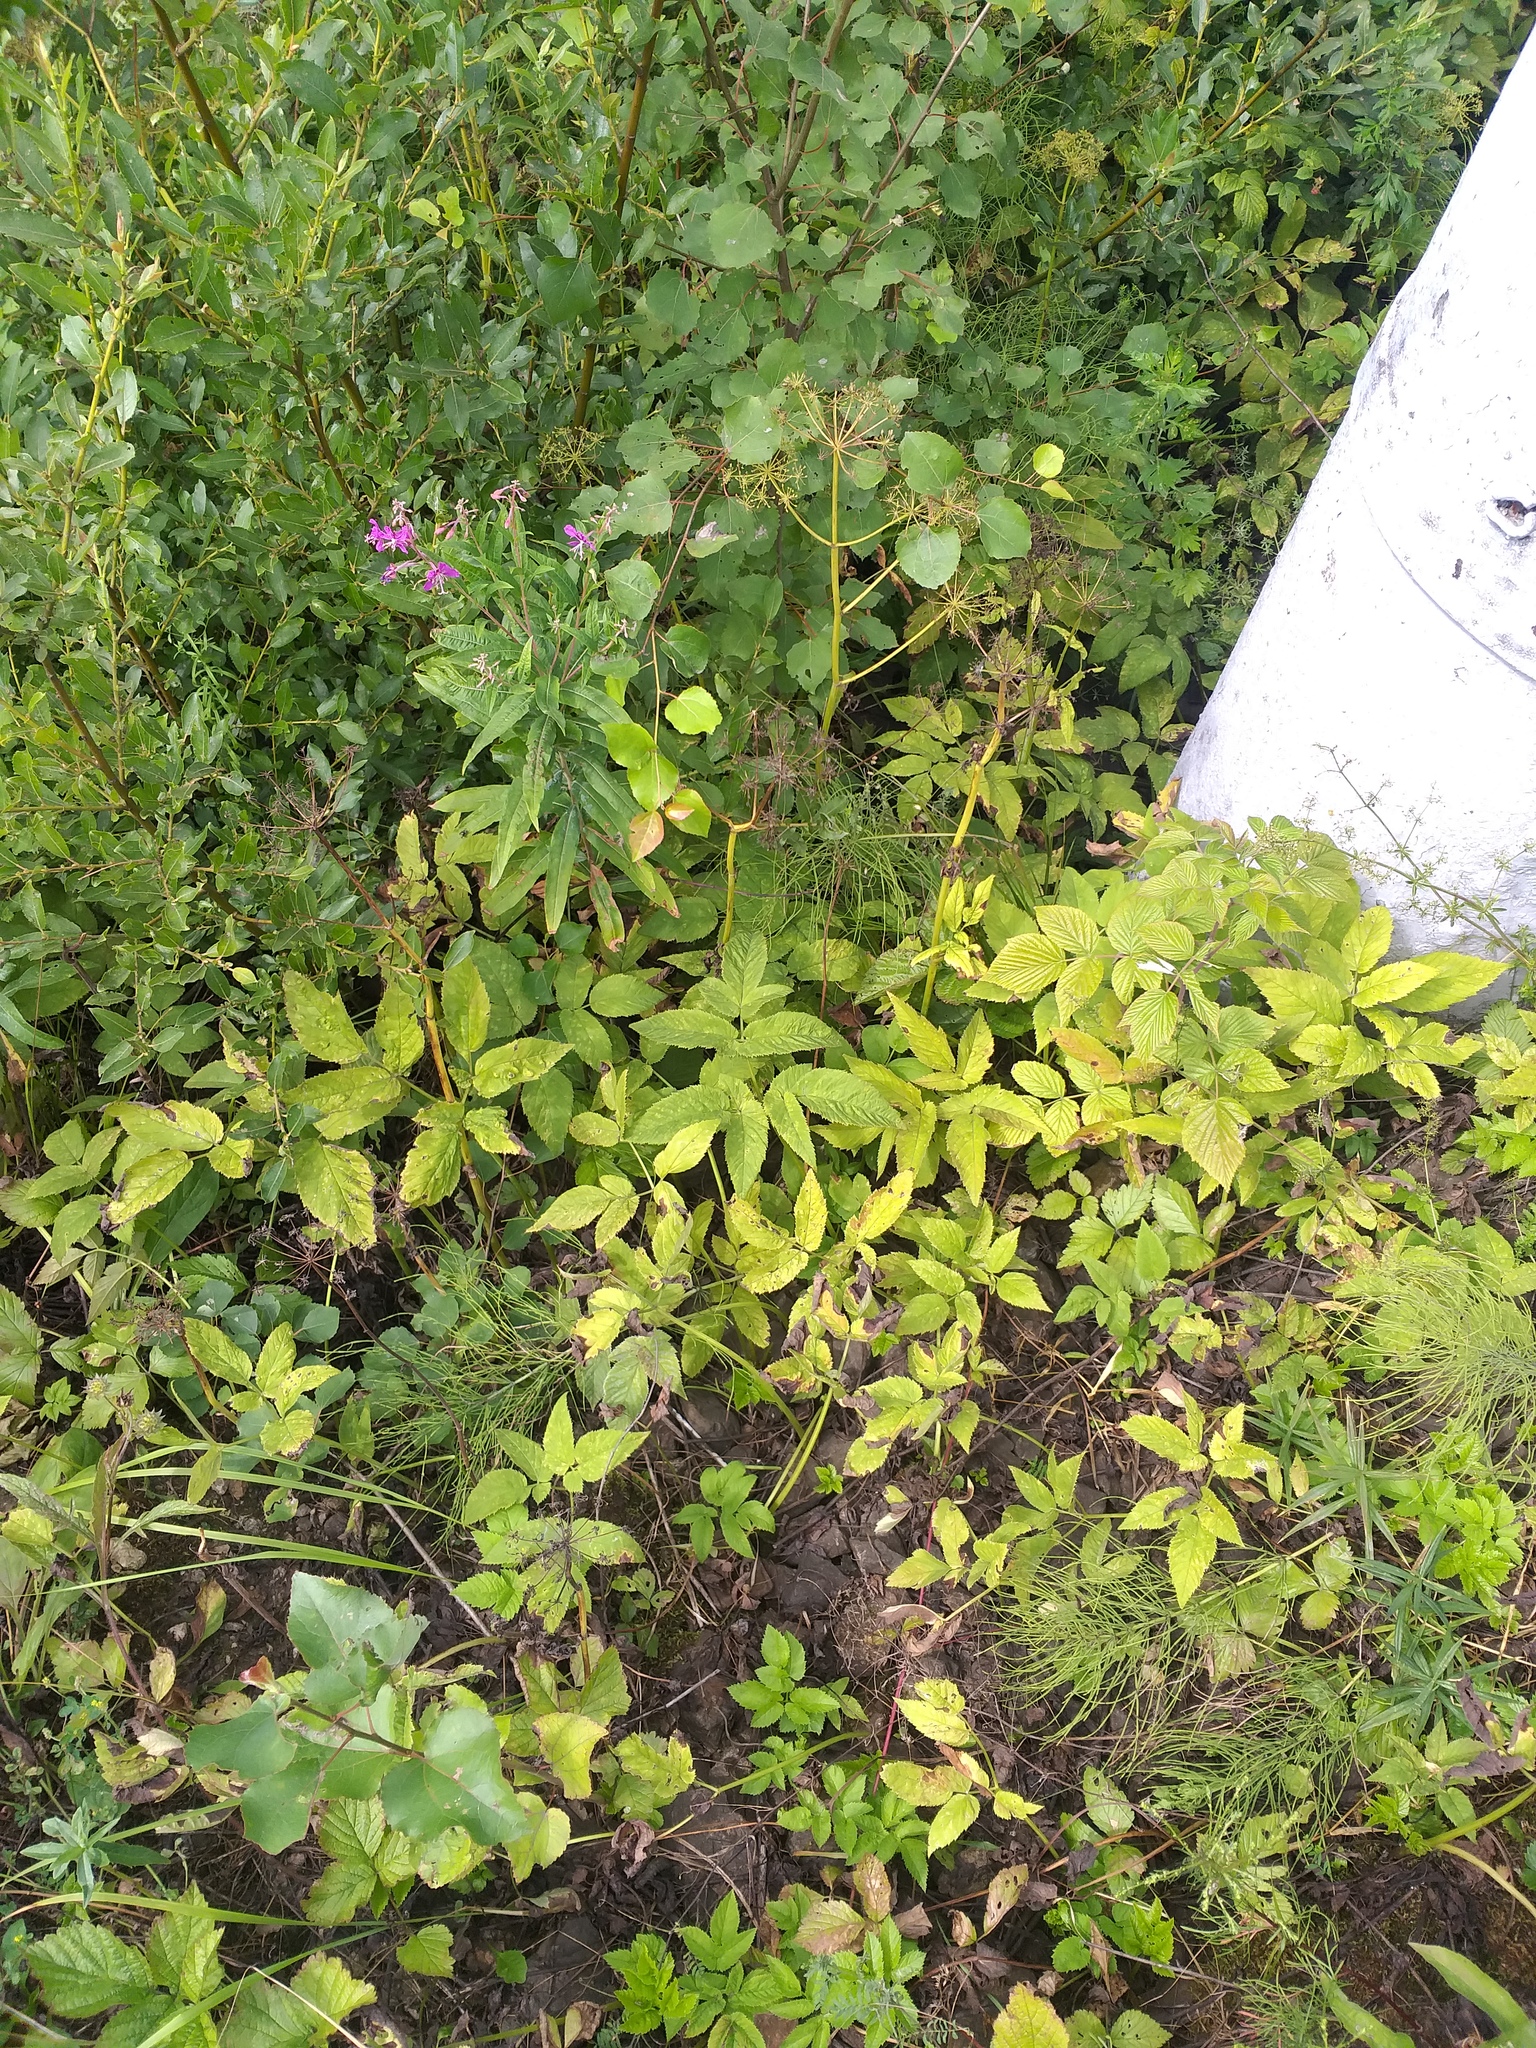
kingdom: Plantae
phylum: Tracheophyta
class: Magnoliopsida
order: Apiales
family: Apiaceae
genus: Aegopodium
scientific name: Aegopodium podagraria
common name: Ground-elder
